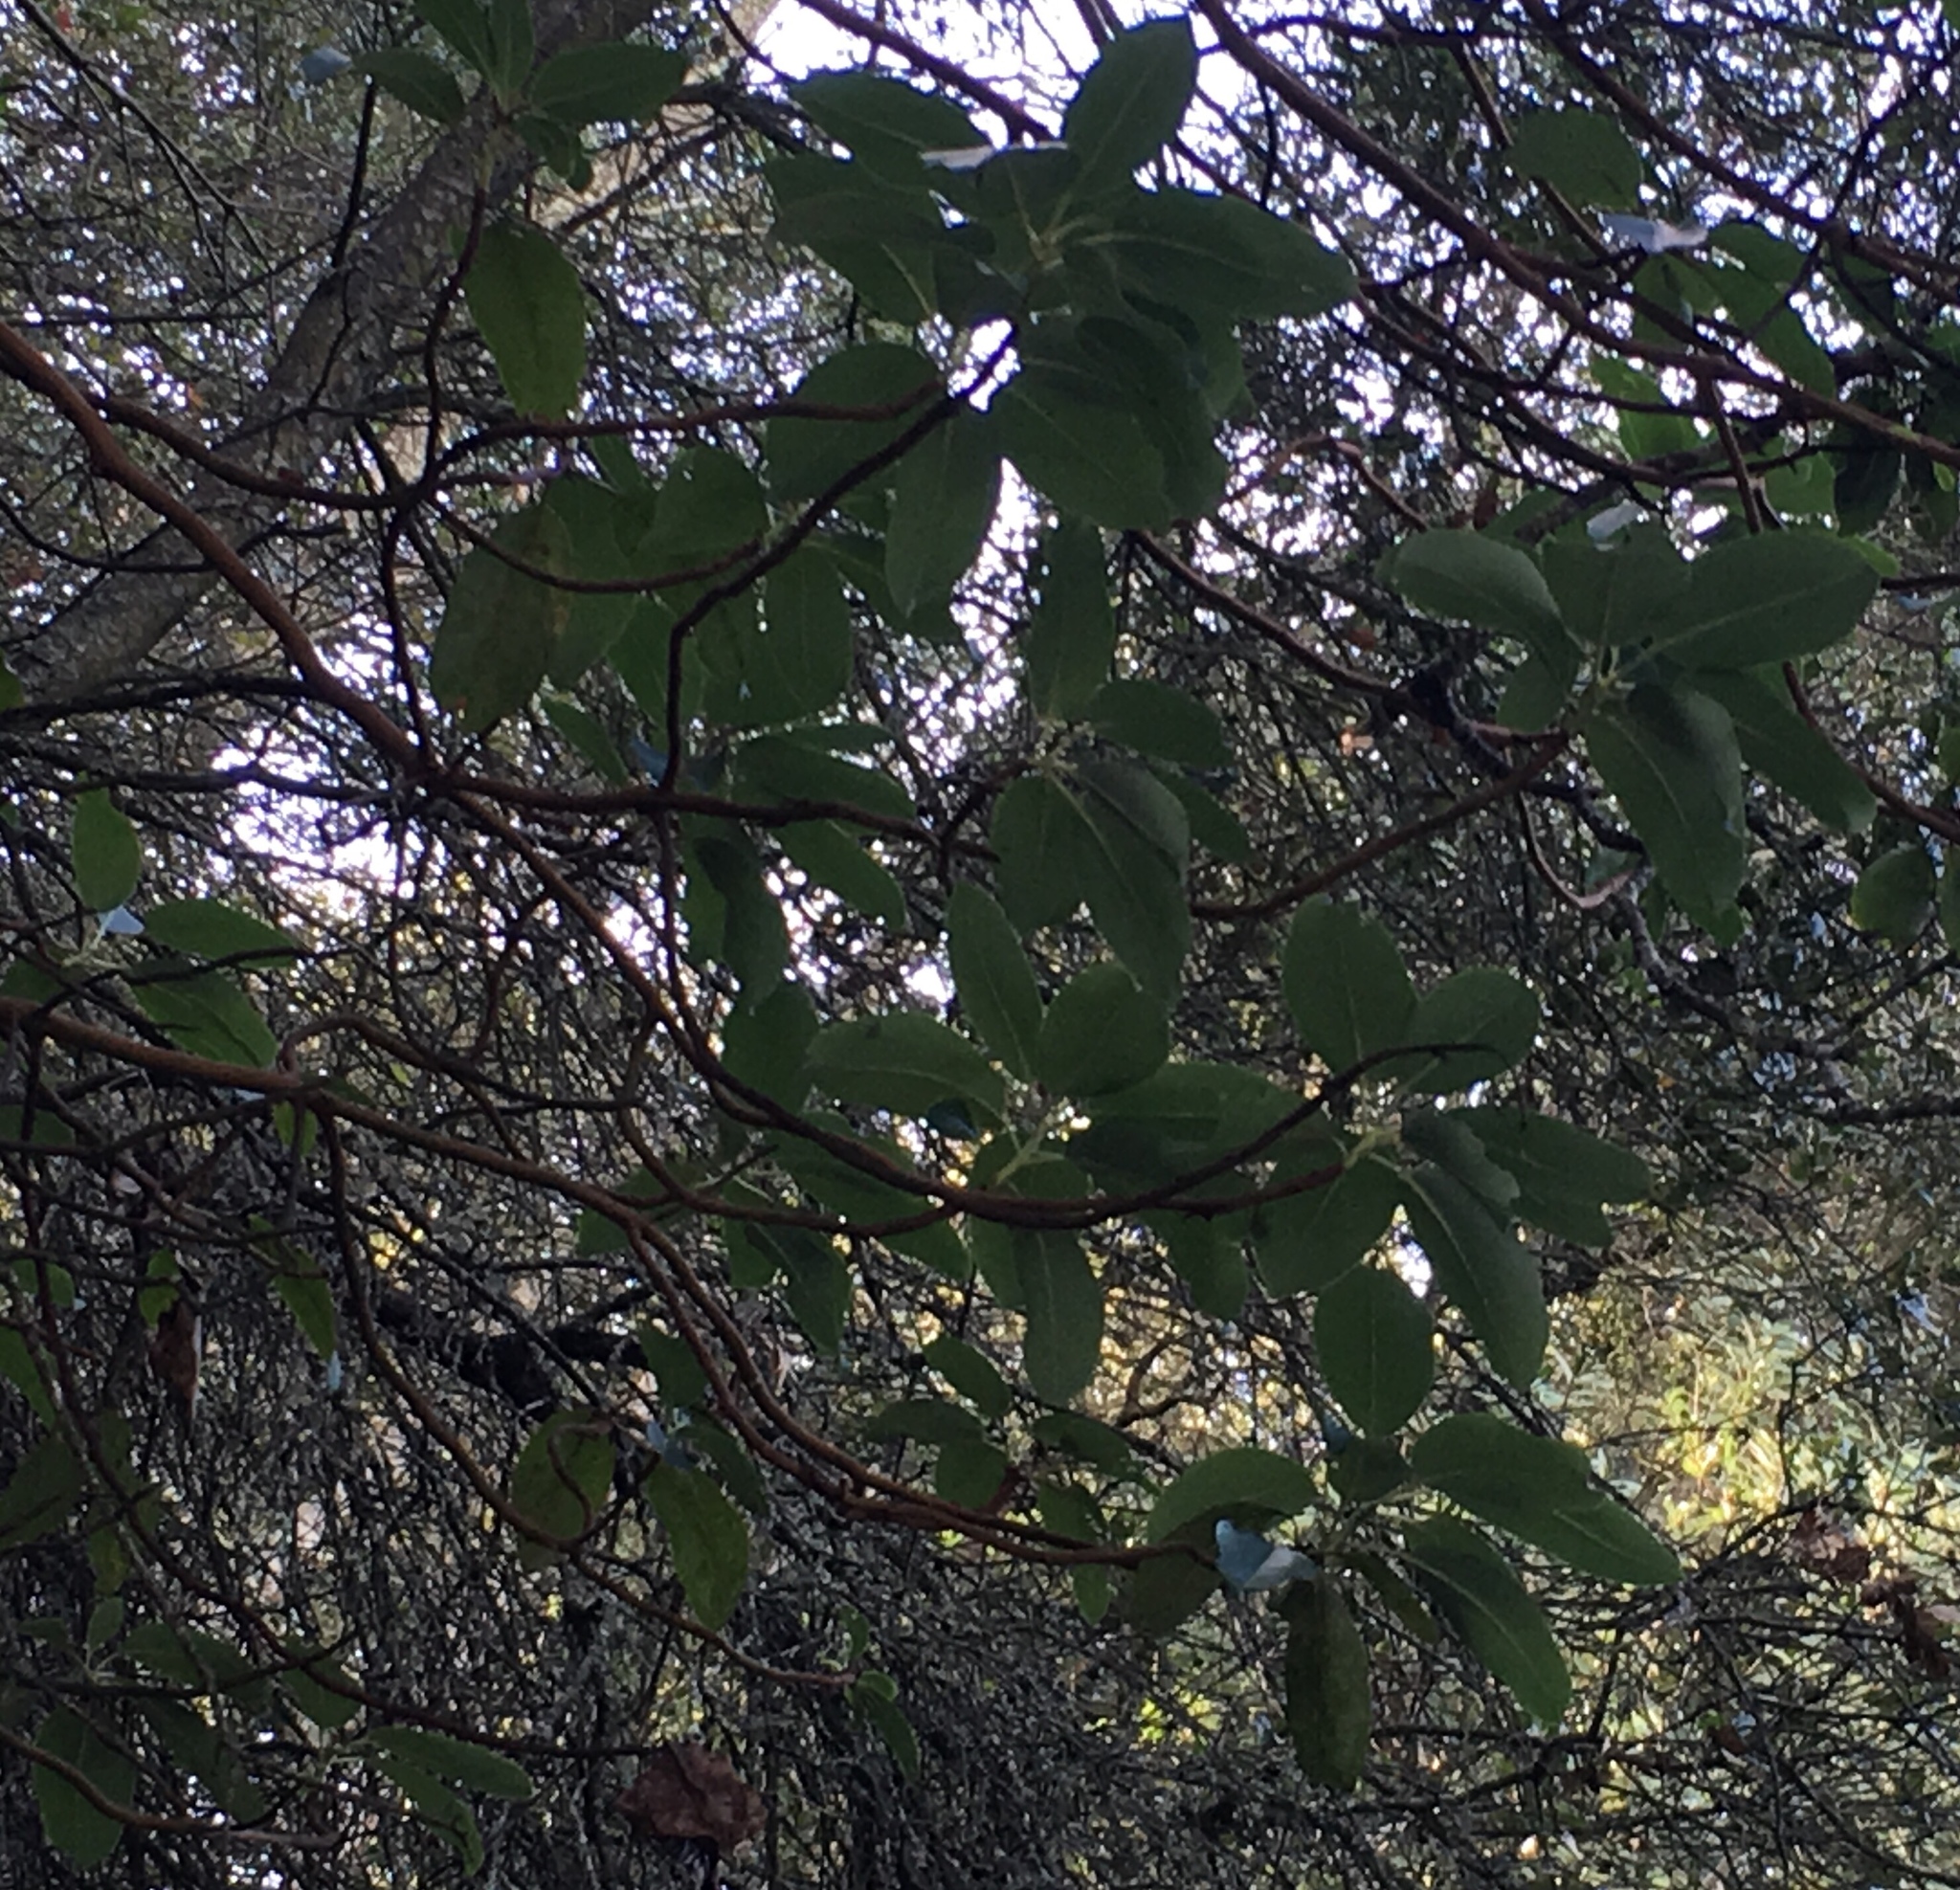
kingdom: Plantae
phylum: Tracheophyta
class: Magnoliopsida
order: Ericales
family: Ericaceae
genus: Arbutus
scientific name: Arbutus menziesii
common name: Pacific madrone
